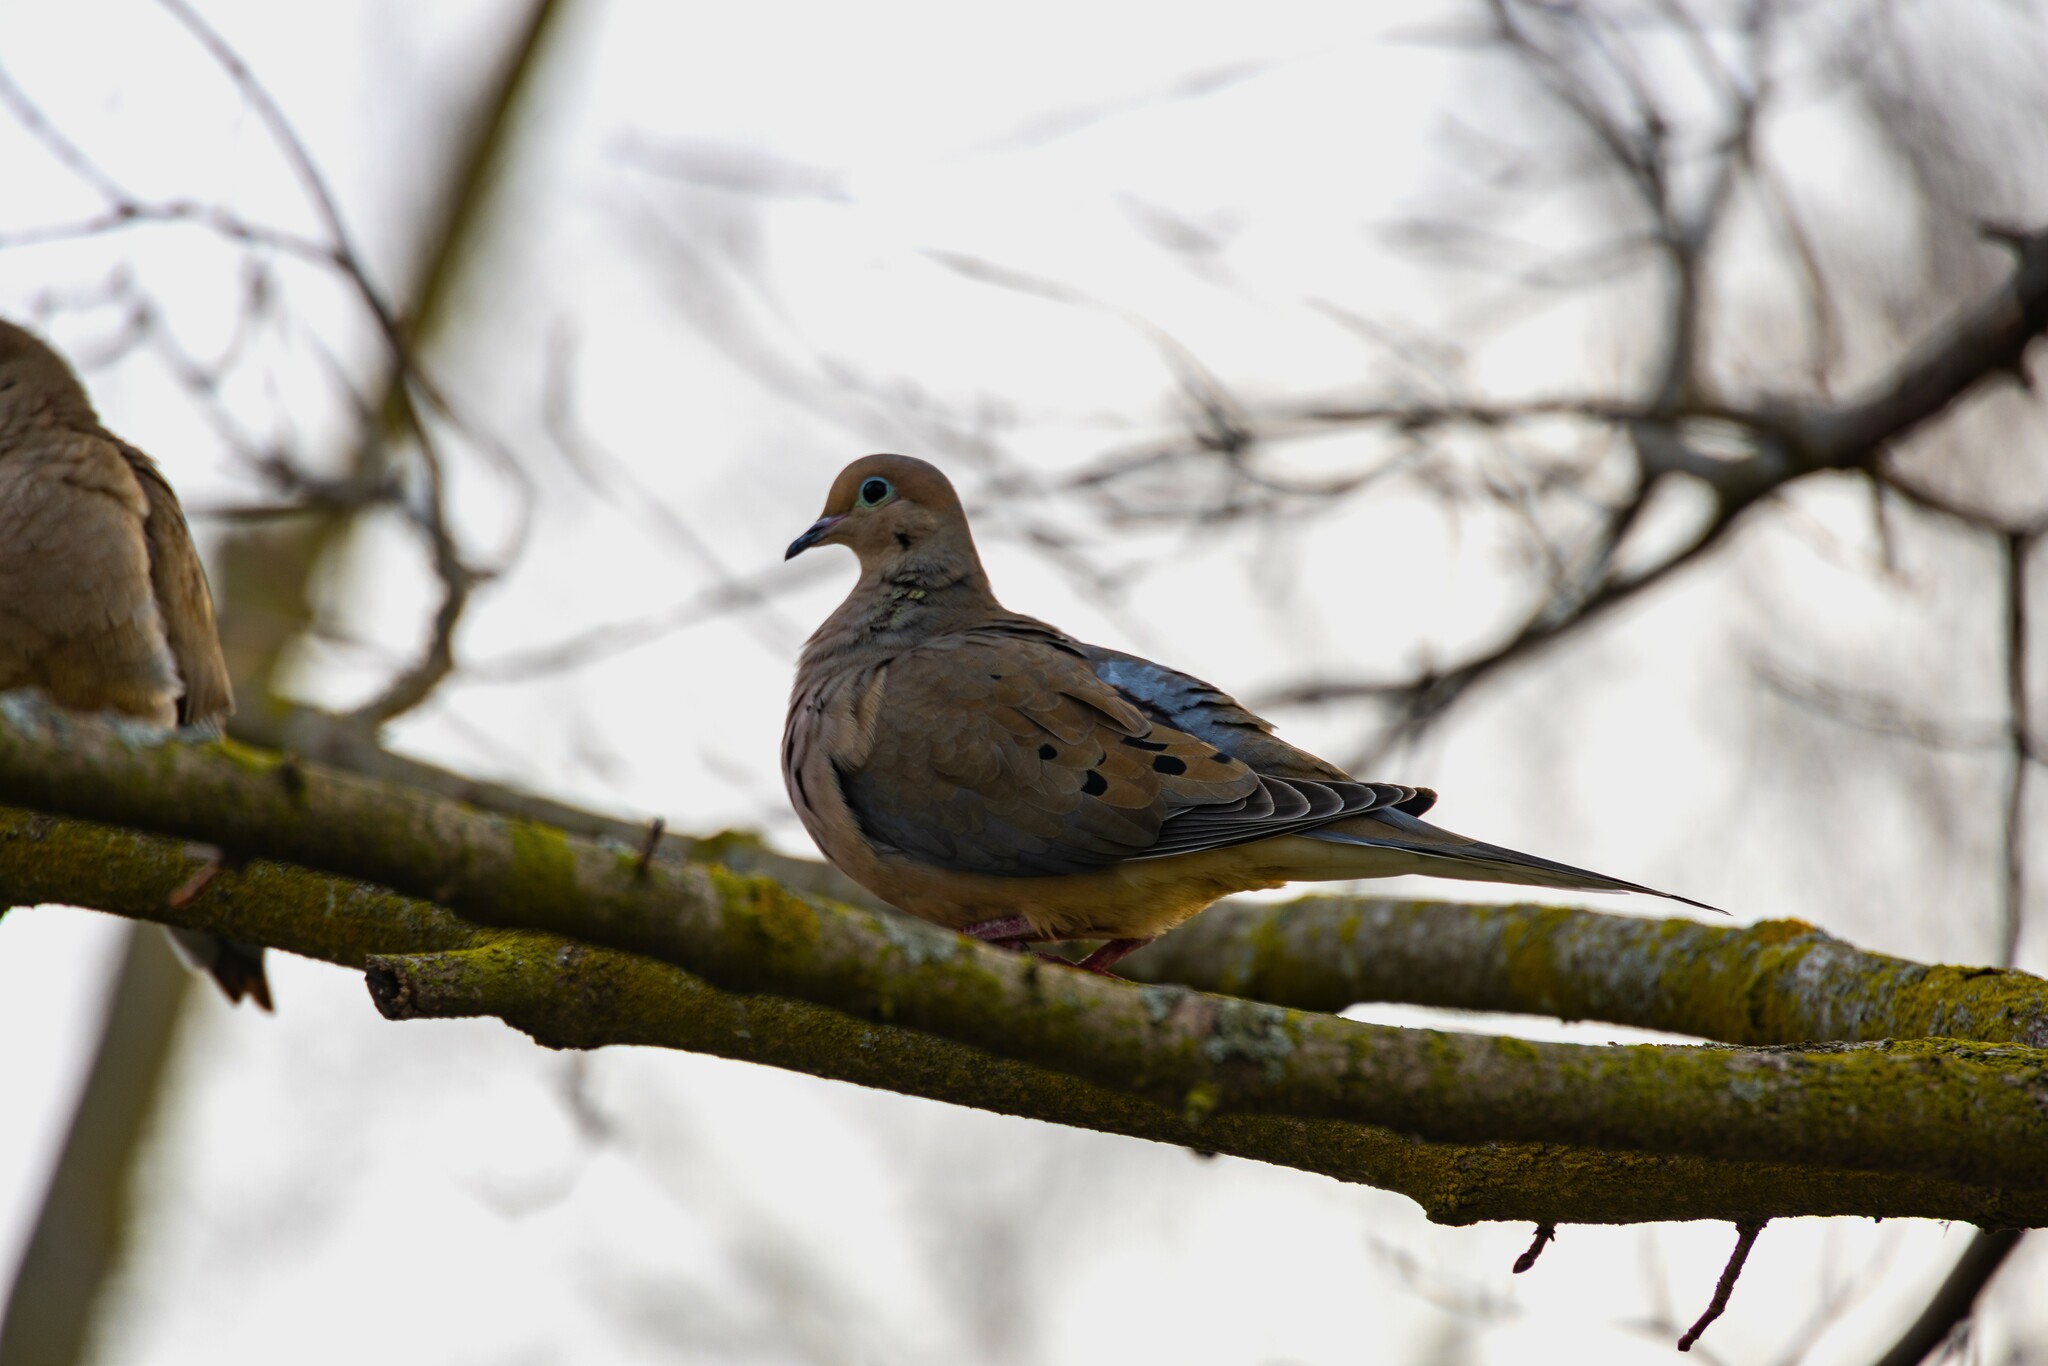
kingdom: Animalia
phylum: Chordata
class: Aves
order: Columbiformes
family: Columbidae
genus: Zenaida
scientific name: Zenaida macroura
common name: Mourning dove
